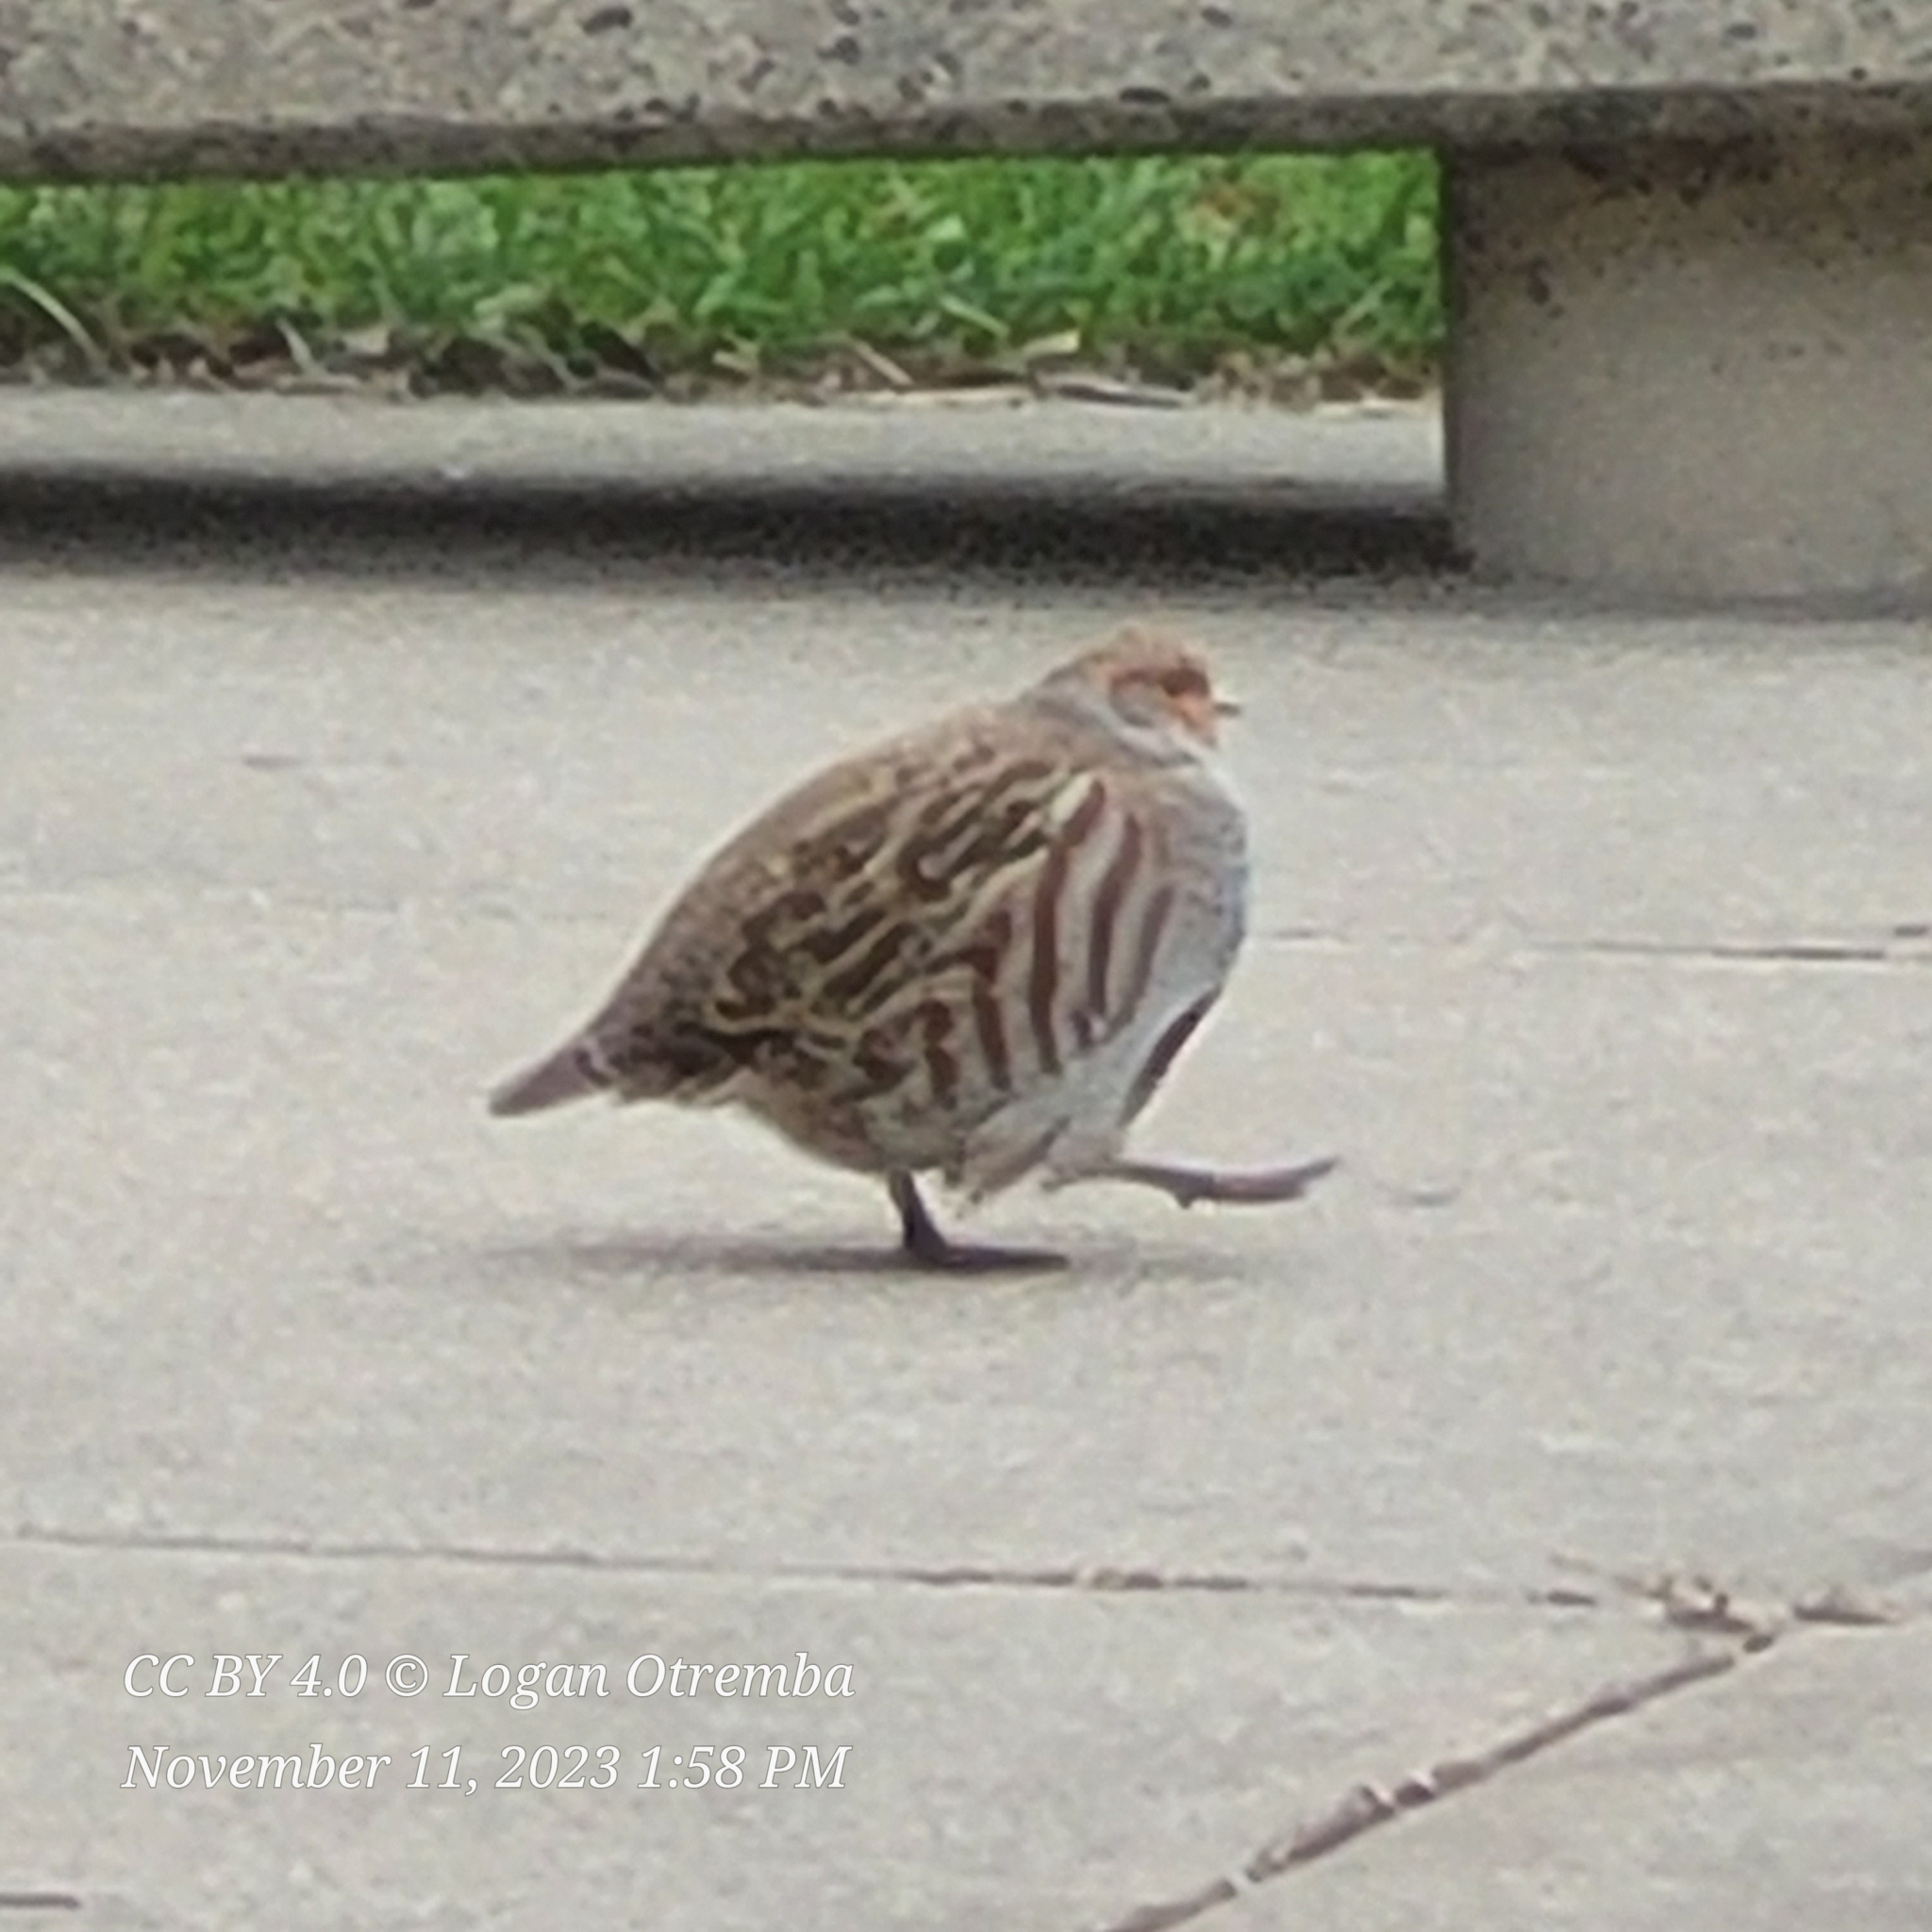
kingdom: Animalia
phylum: Chordata
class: Aves
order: Galliformes
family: Phasianidae
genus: Perdix
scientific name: Perdix perdix
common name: Grey partridge
